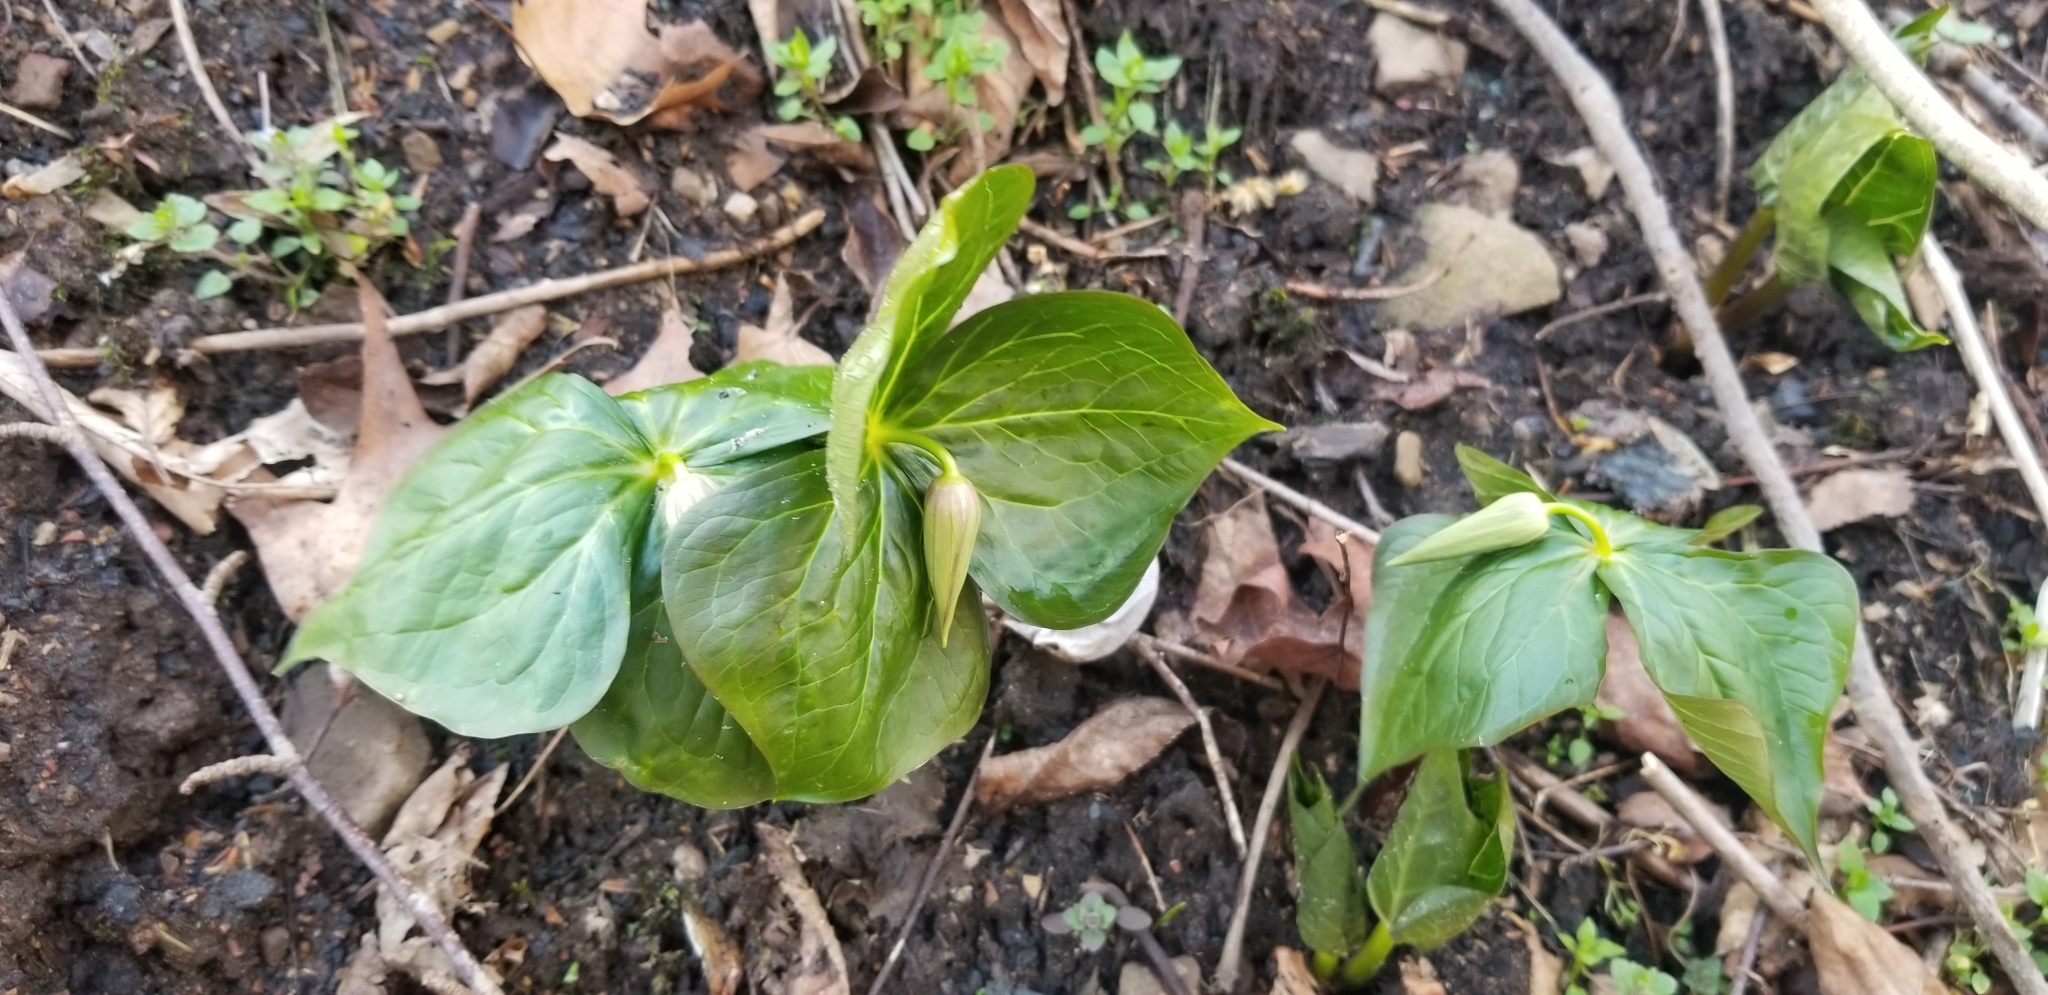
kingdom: Plantae
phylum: Tracheophyta
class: Liliopsida
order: Liliales
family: Melanthiaceae
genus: Trillium
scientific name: Trillium erectum
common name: Purple trillium
